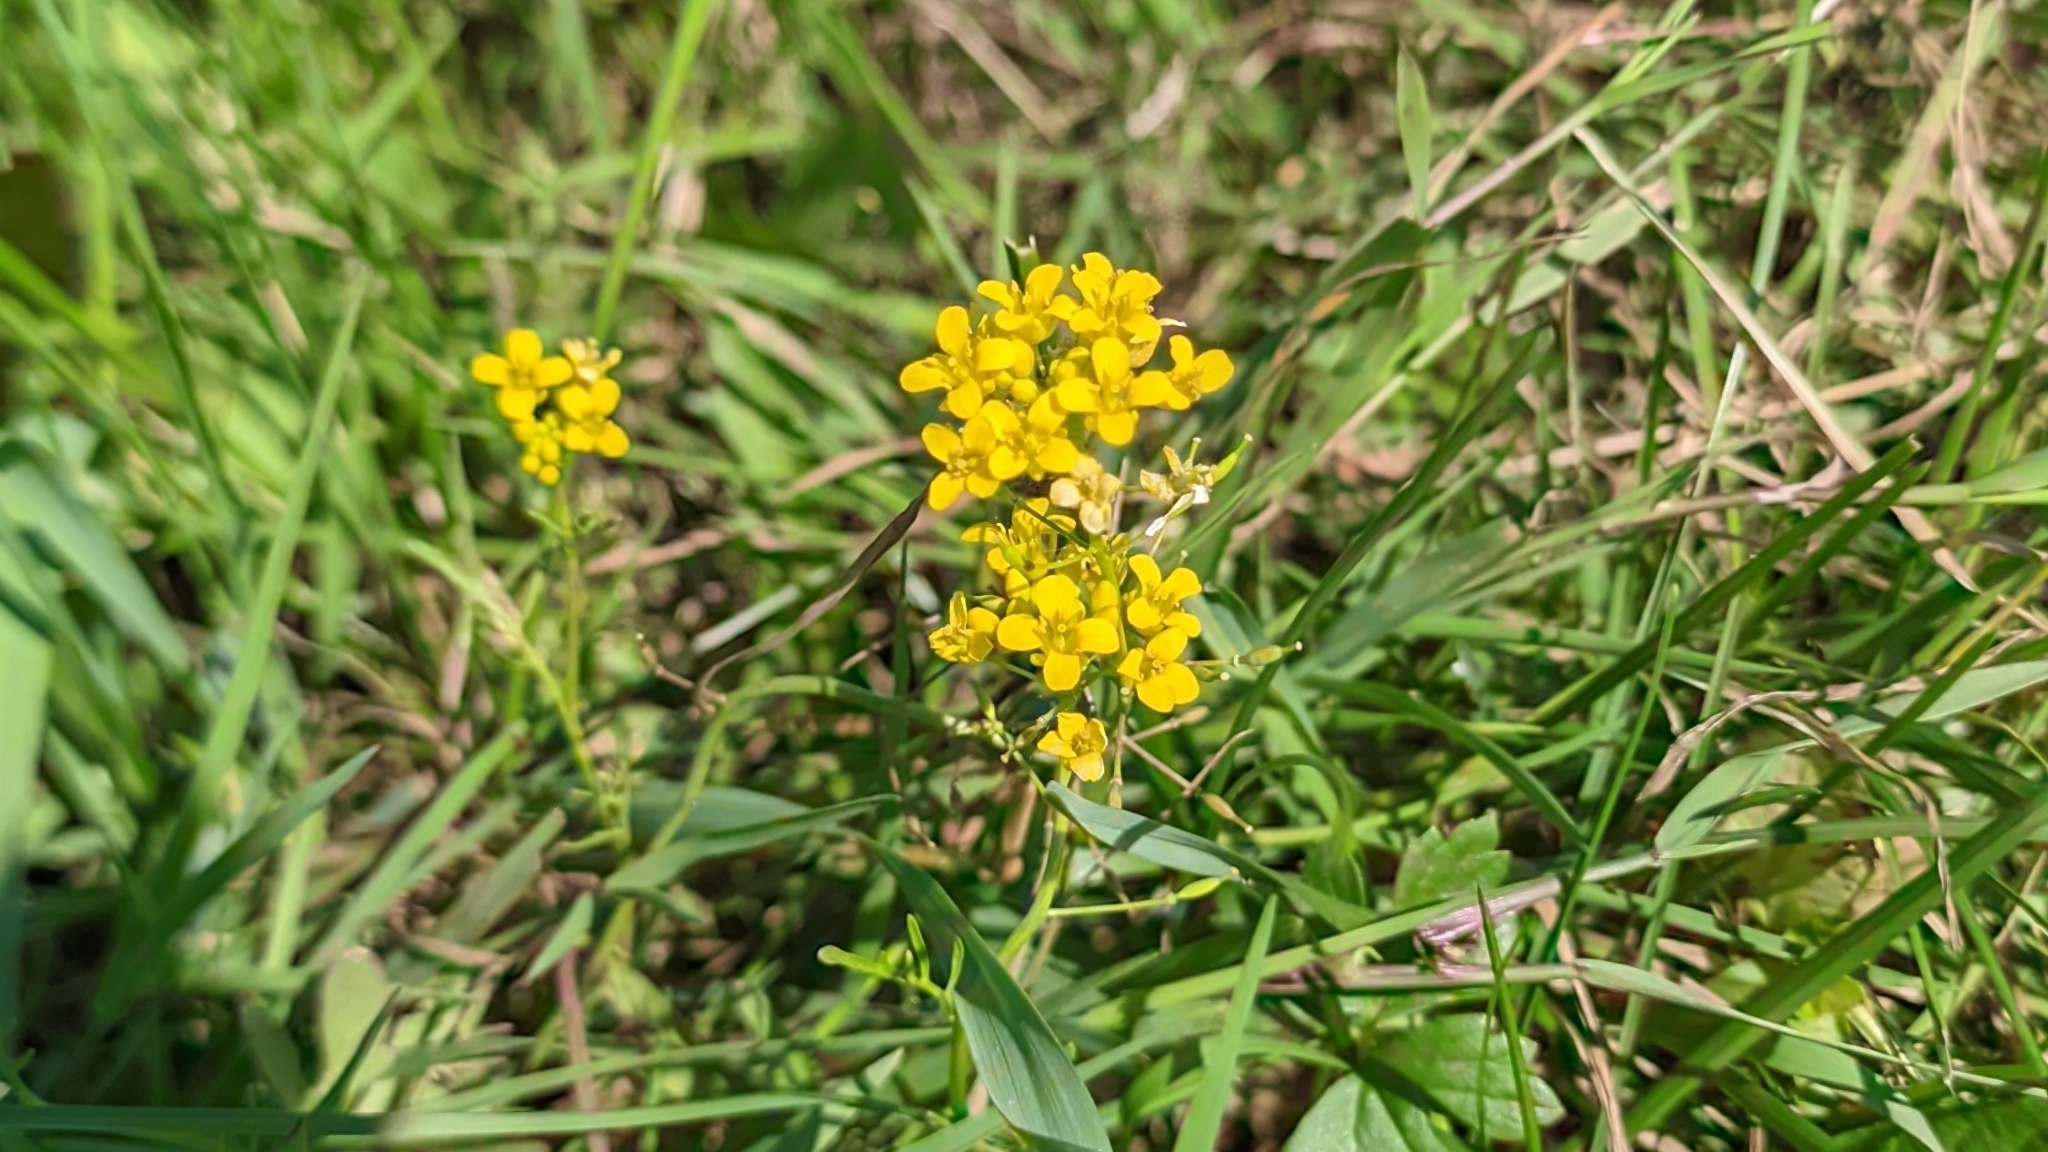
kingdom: Plantae
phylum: Tracheophyta
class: Magnoliopsida
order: Brassicales
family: Brassicaceae
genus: Erysimum
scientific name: Erysimum cheiranthoides
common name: Treacle mustard
